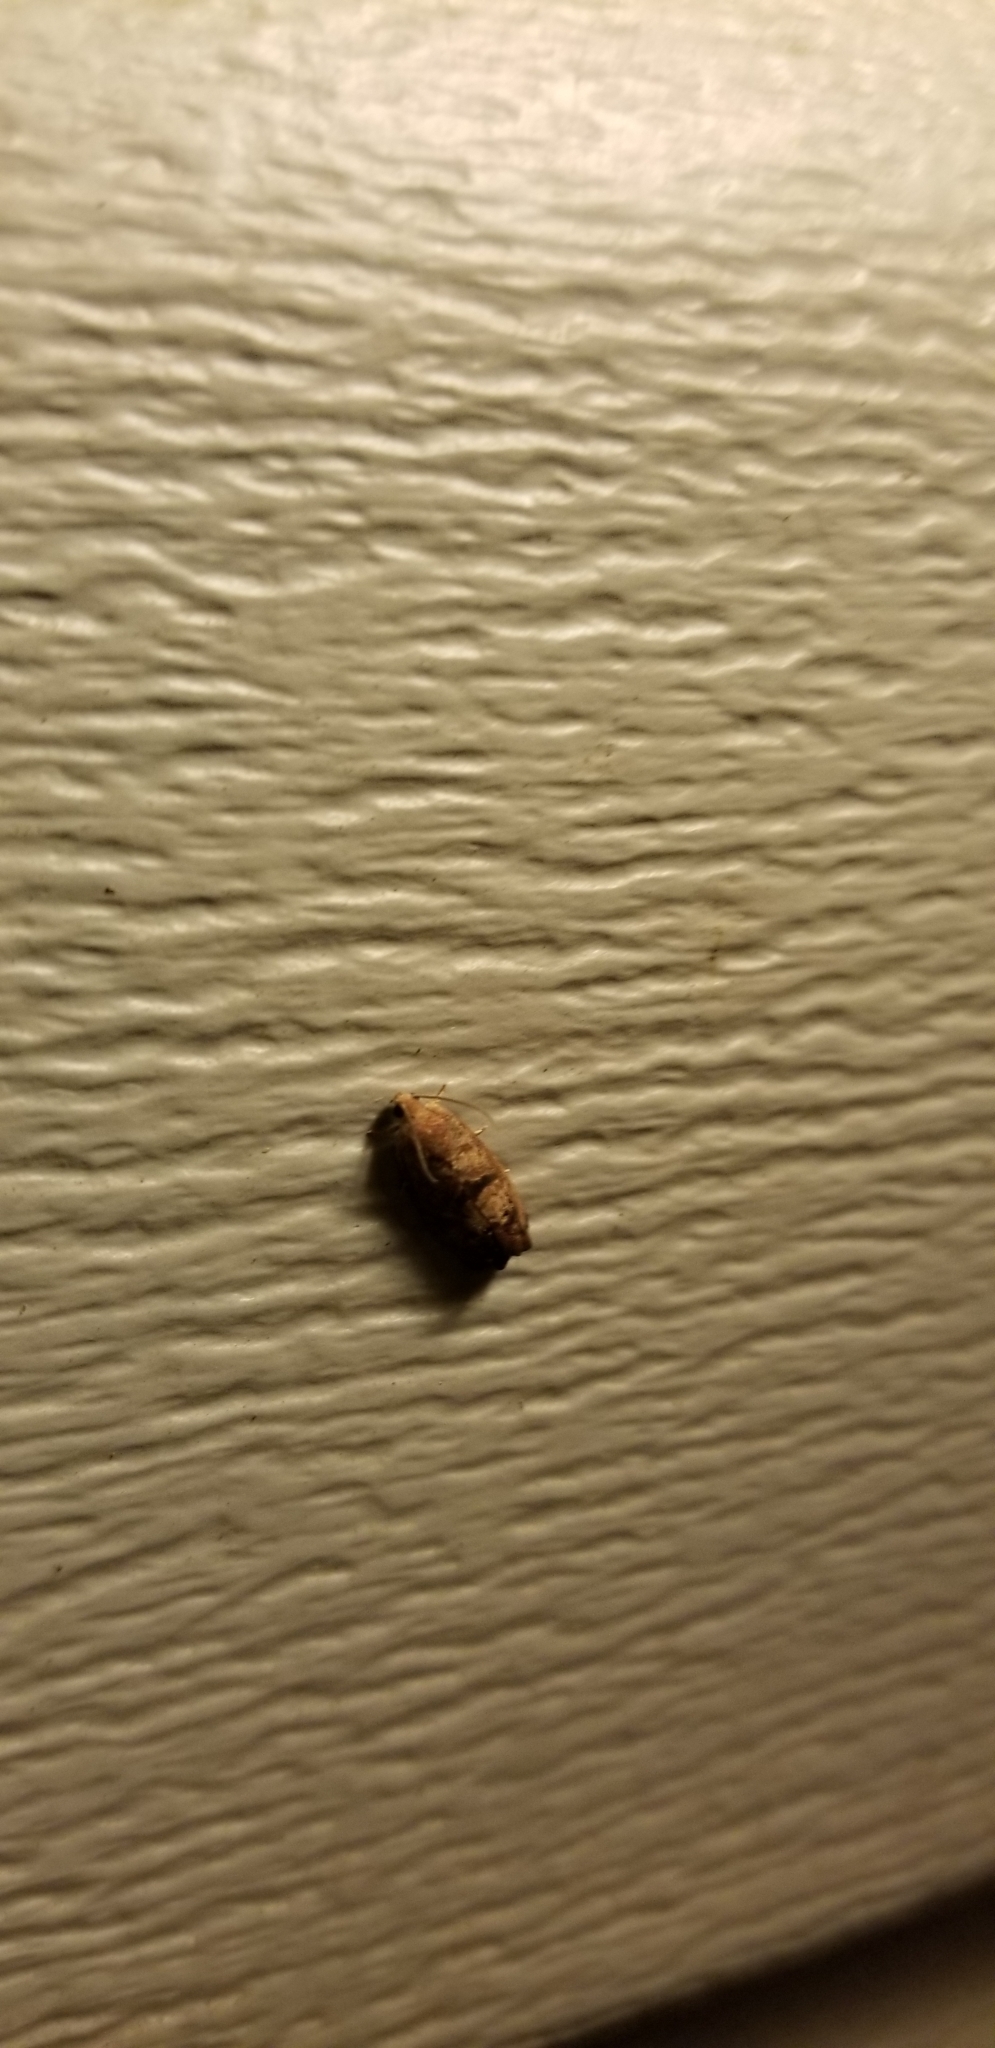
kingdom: Animalia
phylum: Arthropoda
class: Insecta
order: Lepidoptera
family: Tortricidae
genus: Cydia
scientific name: Cydia latiferreana
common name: Filbertworm moth
